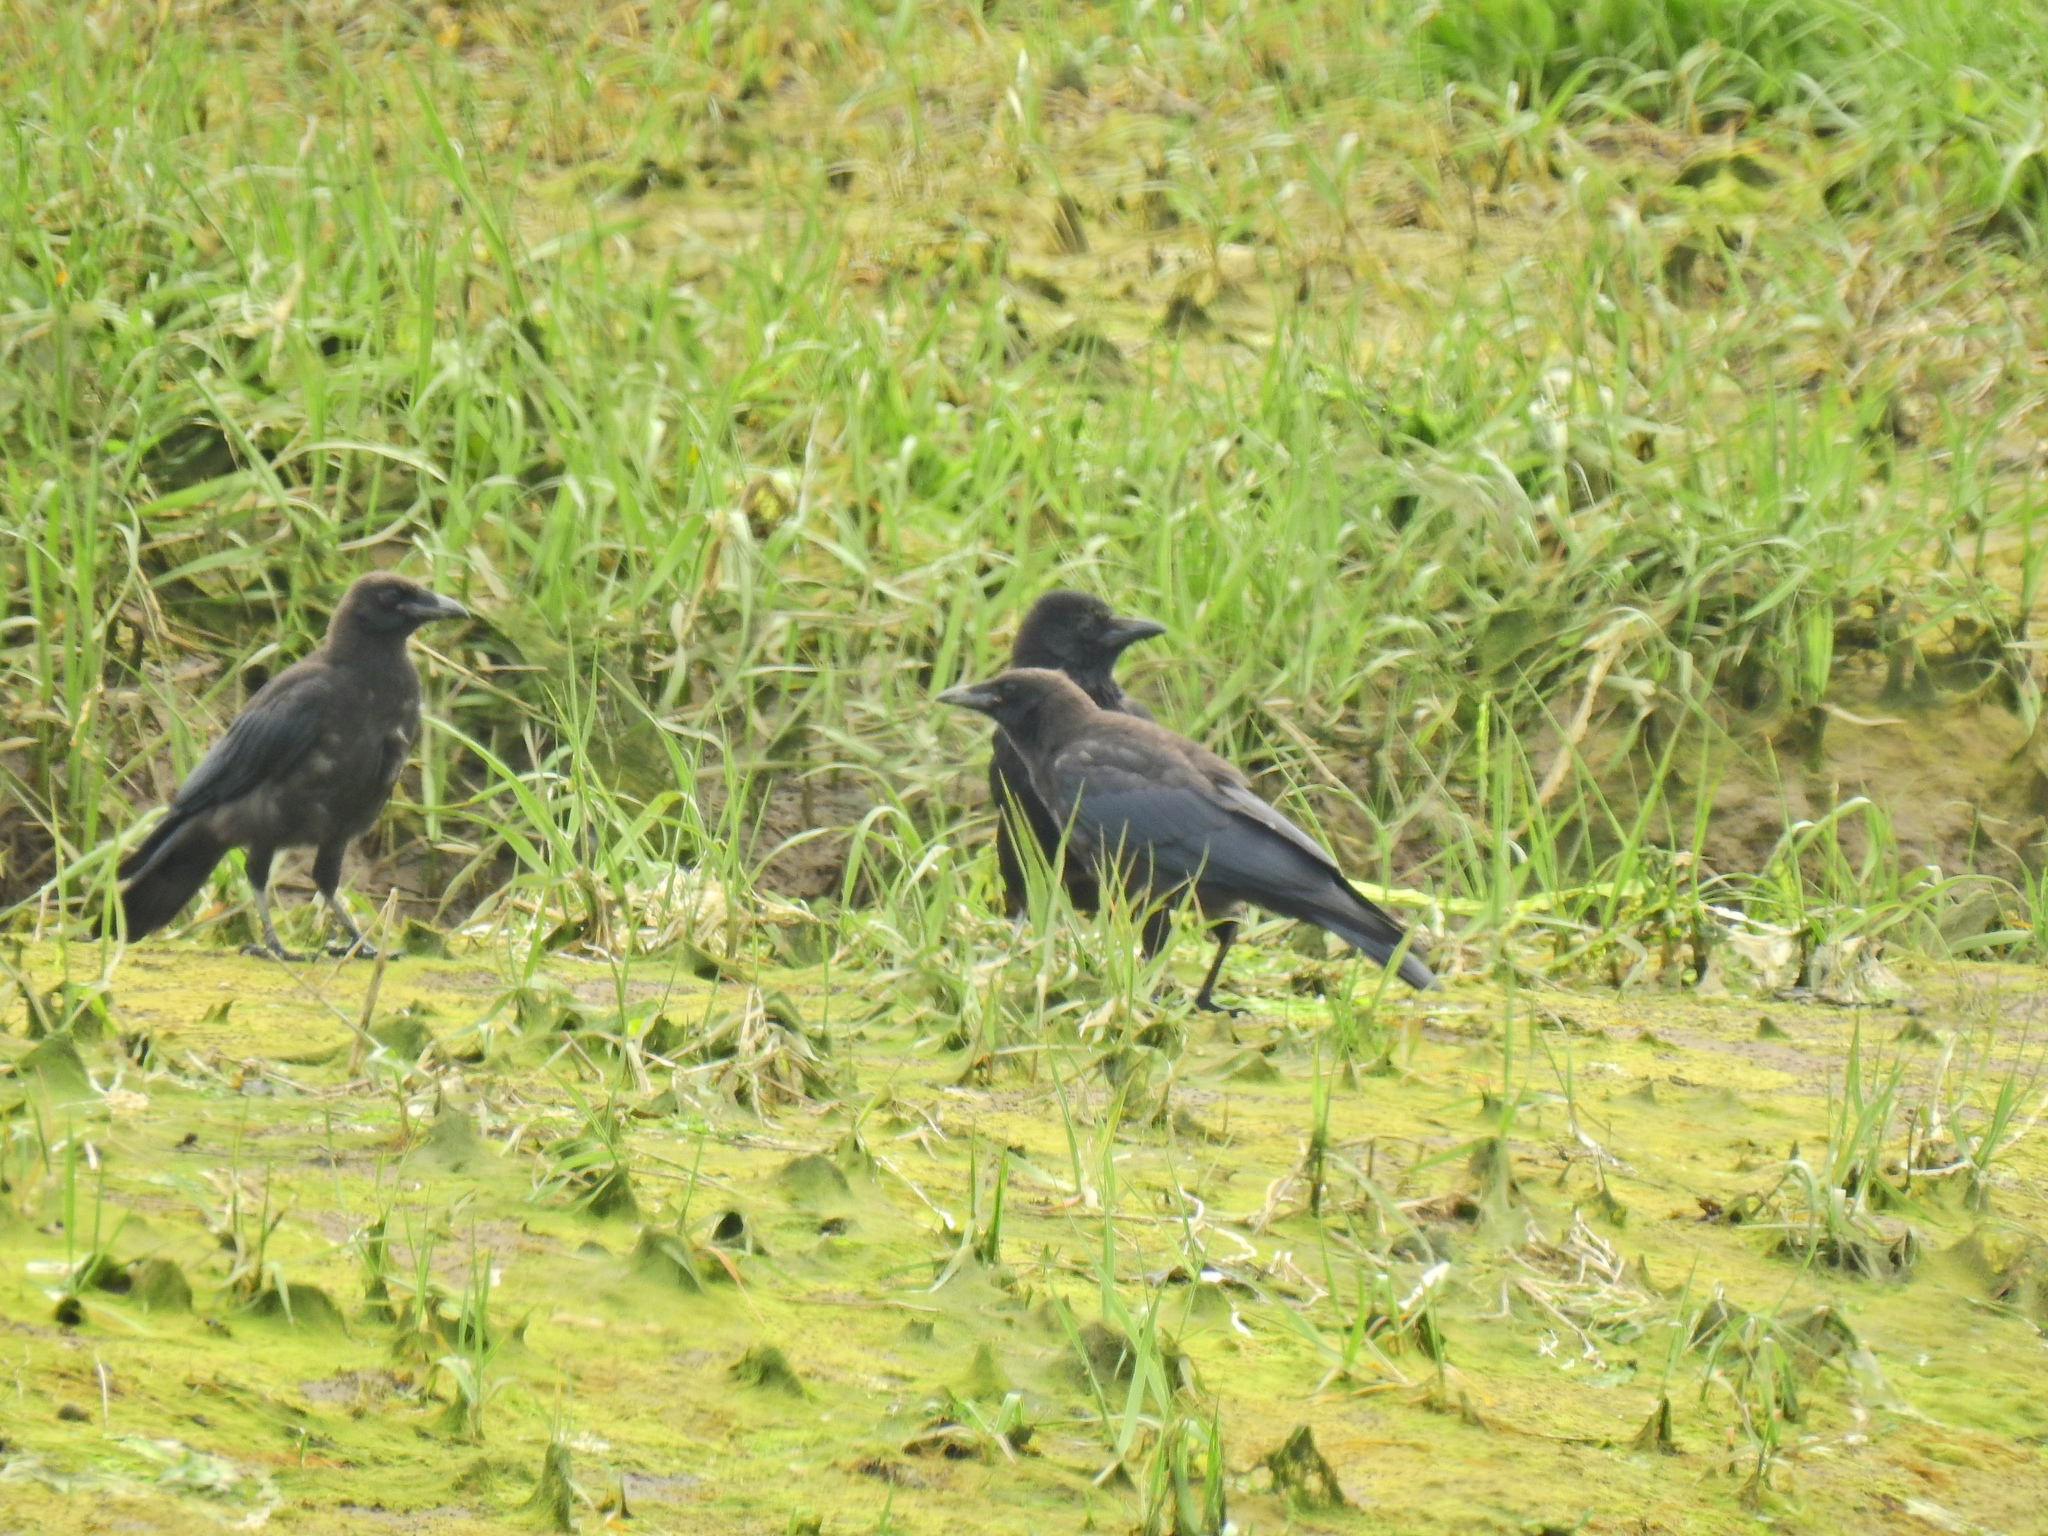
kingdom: Animalia
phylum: Chordata
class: Aves
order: Passeriformes
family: Corvidae
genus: Corvus
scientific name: Corvus corone
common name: Carrion crow
